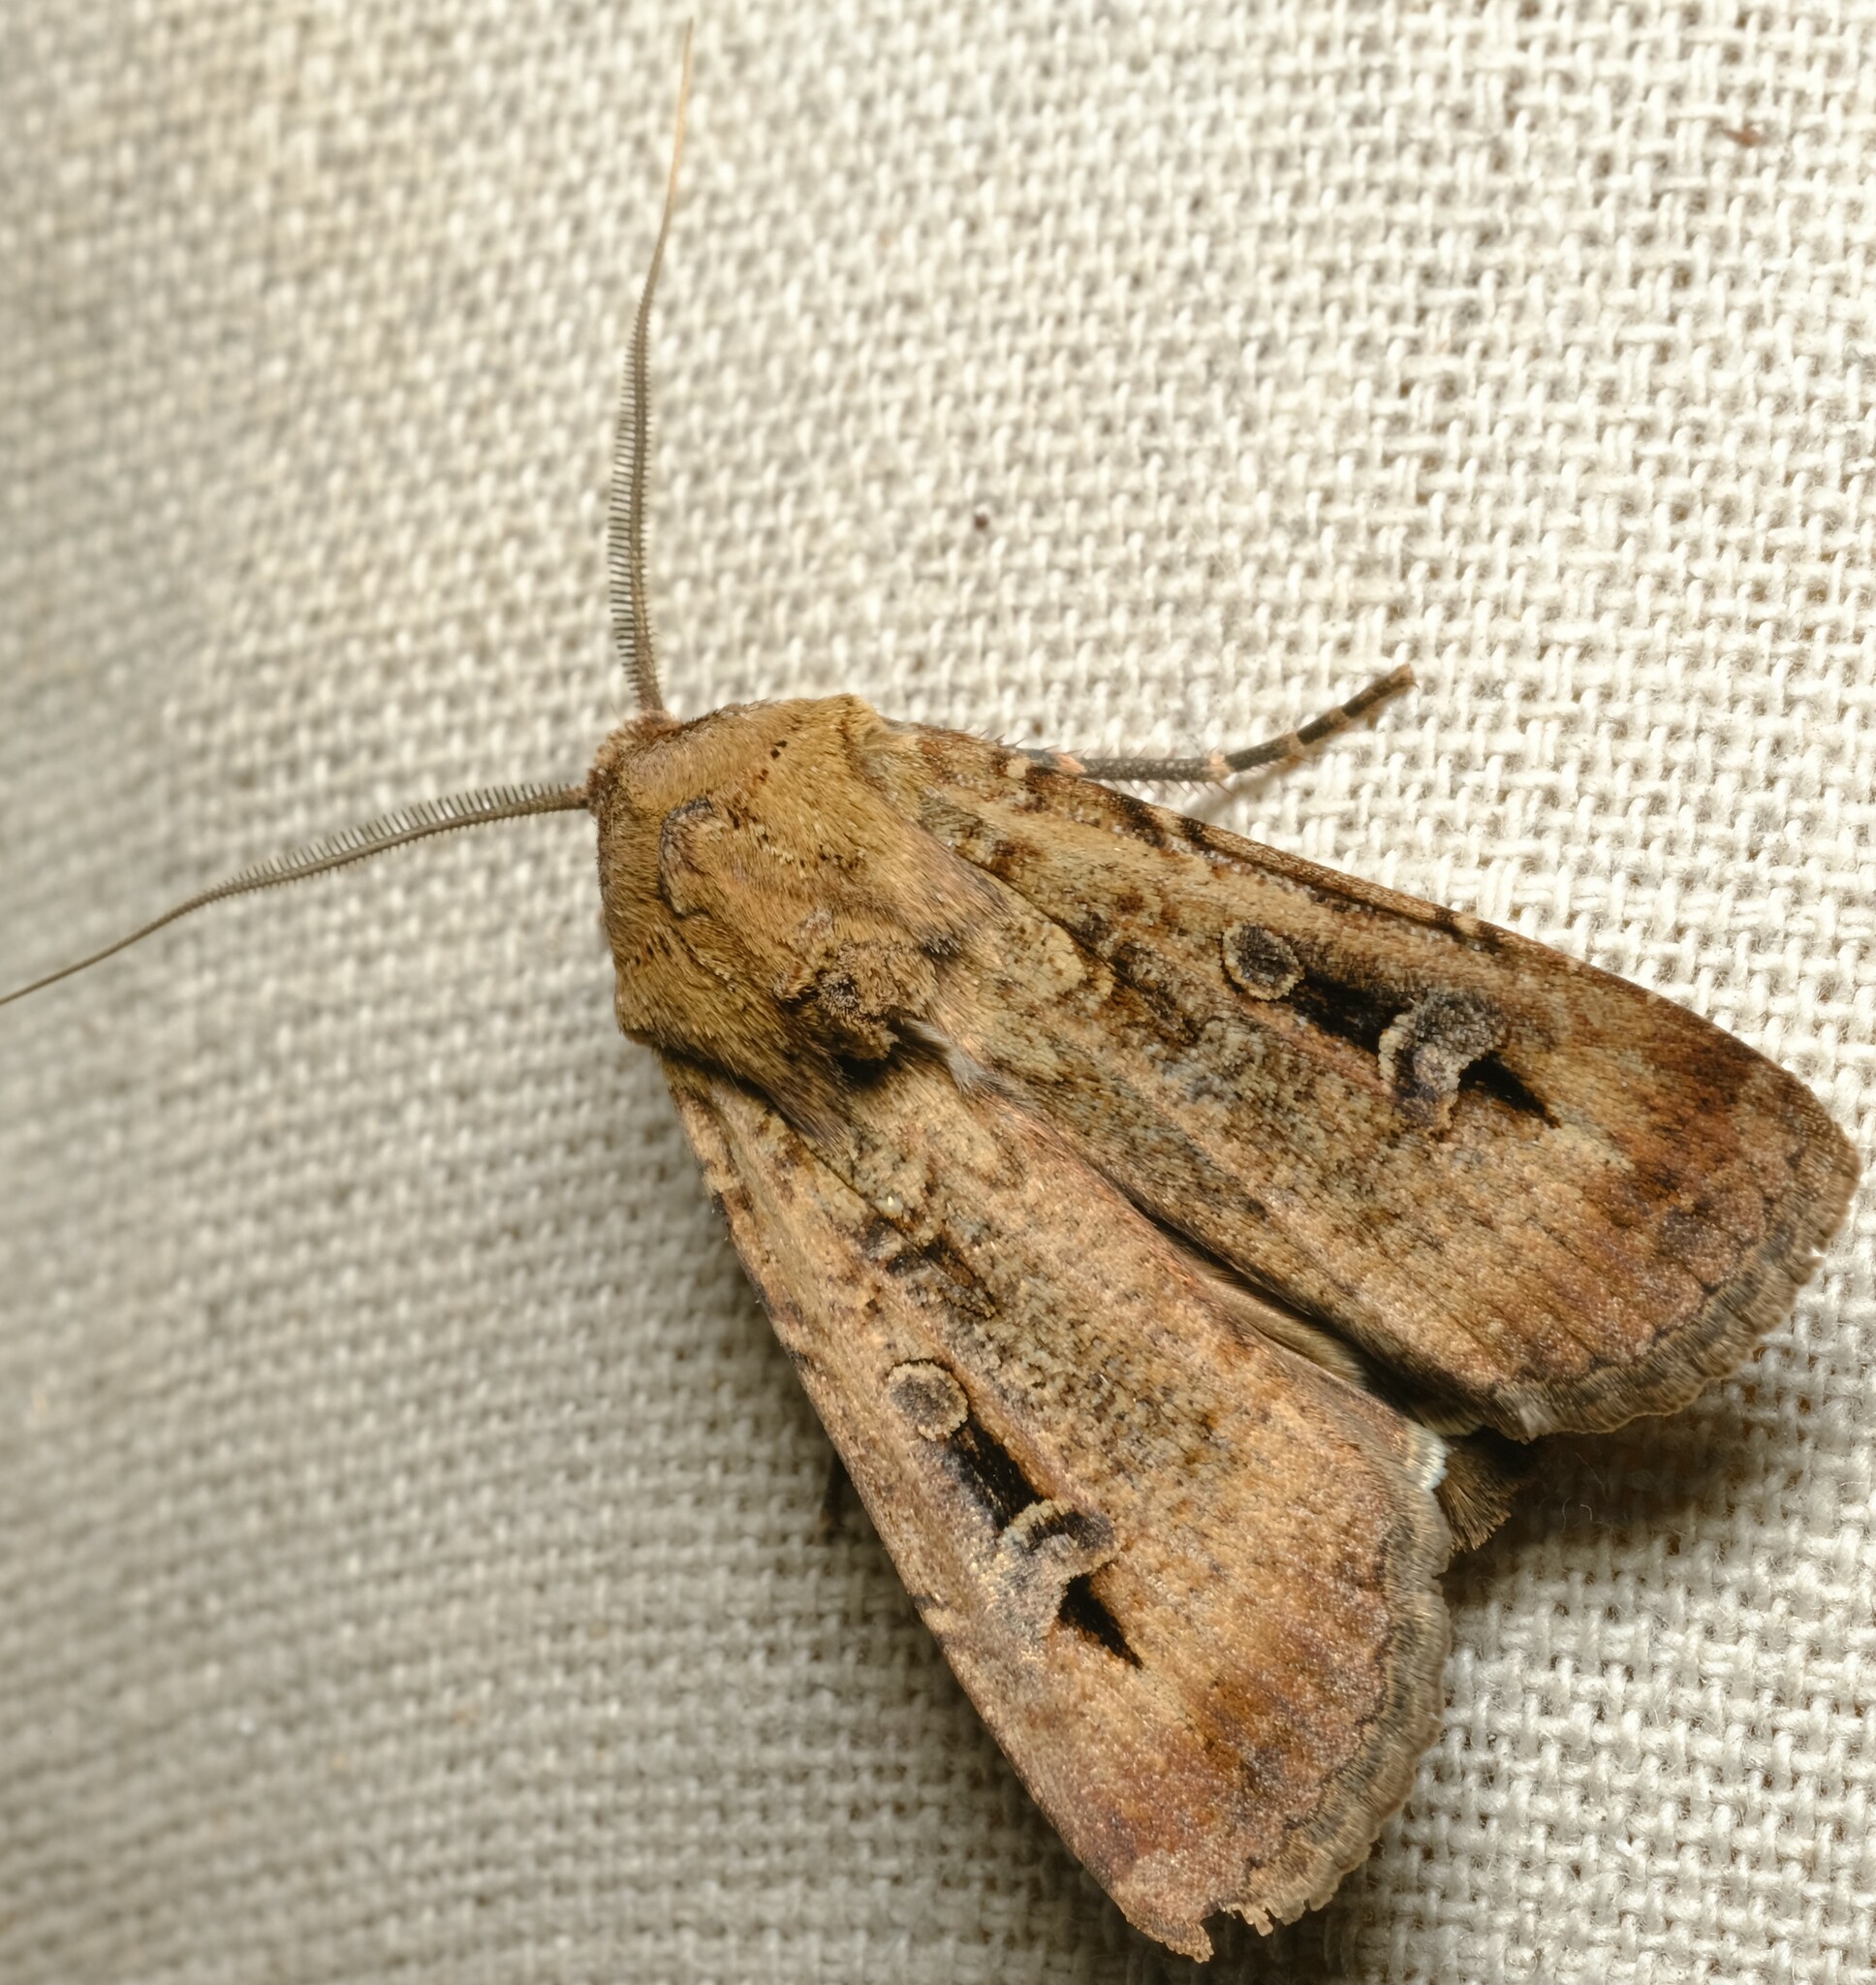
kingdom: Animalia
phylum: Arthropoda
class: Insecta
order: Lepidoptera
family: Noctuidae
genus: Agrotis
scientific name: Agrotis infusa
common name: Bogong moth
